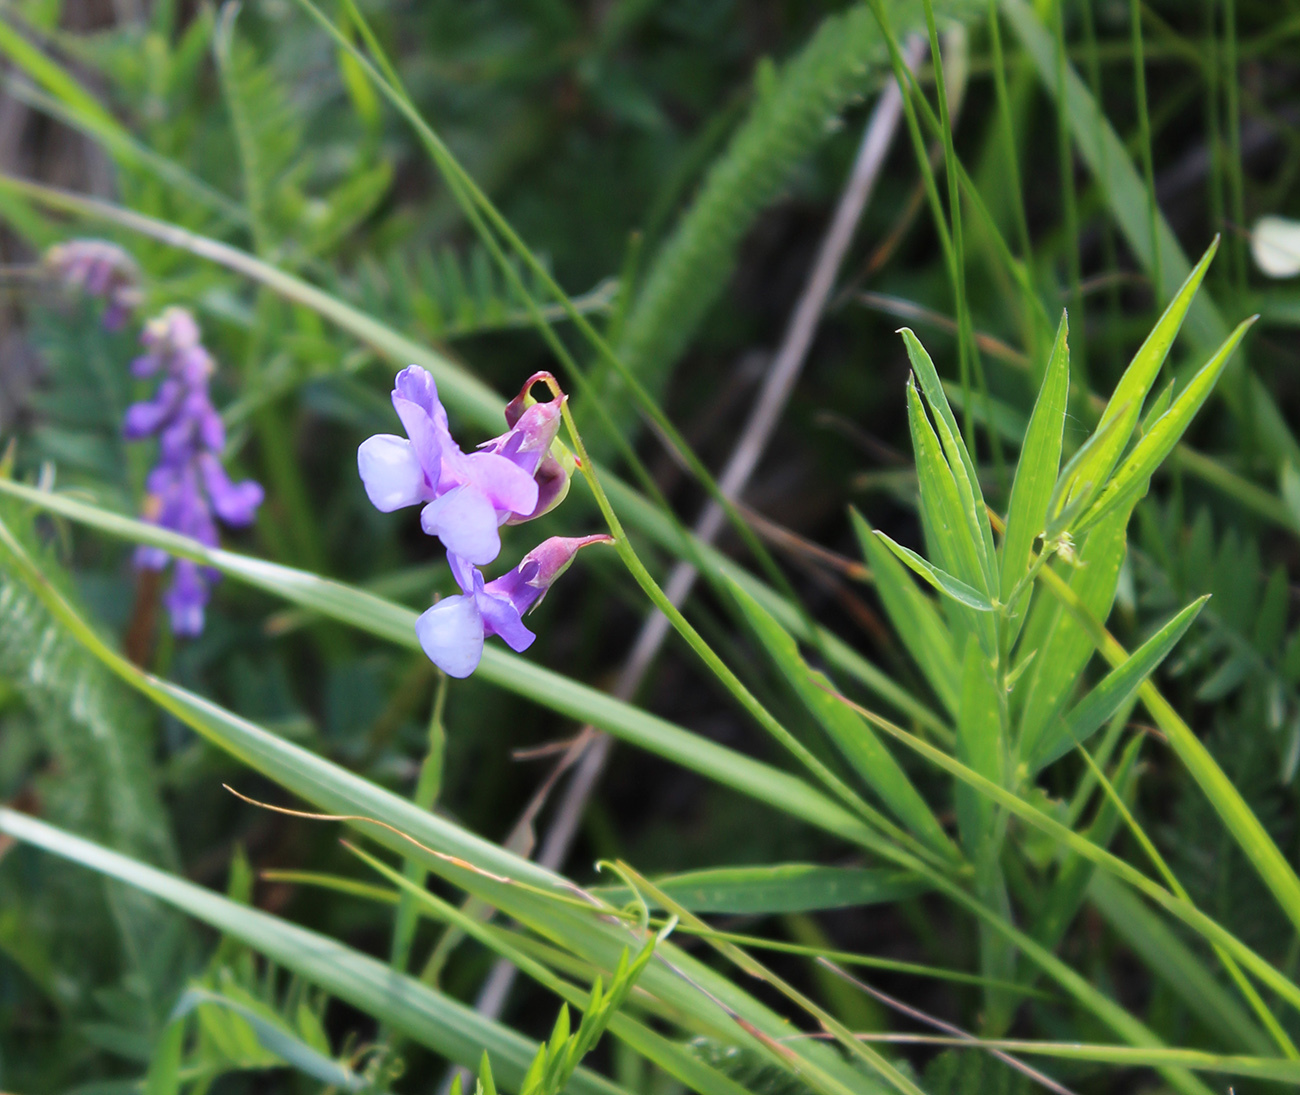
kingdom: Plantae
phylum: Tracheophyta
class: Magnoliopsida
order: Fabales
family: Fabaceae
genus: Lathyrus
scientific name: Lathyrus cyaneus
